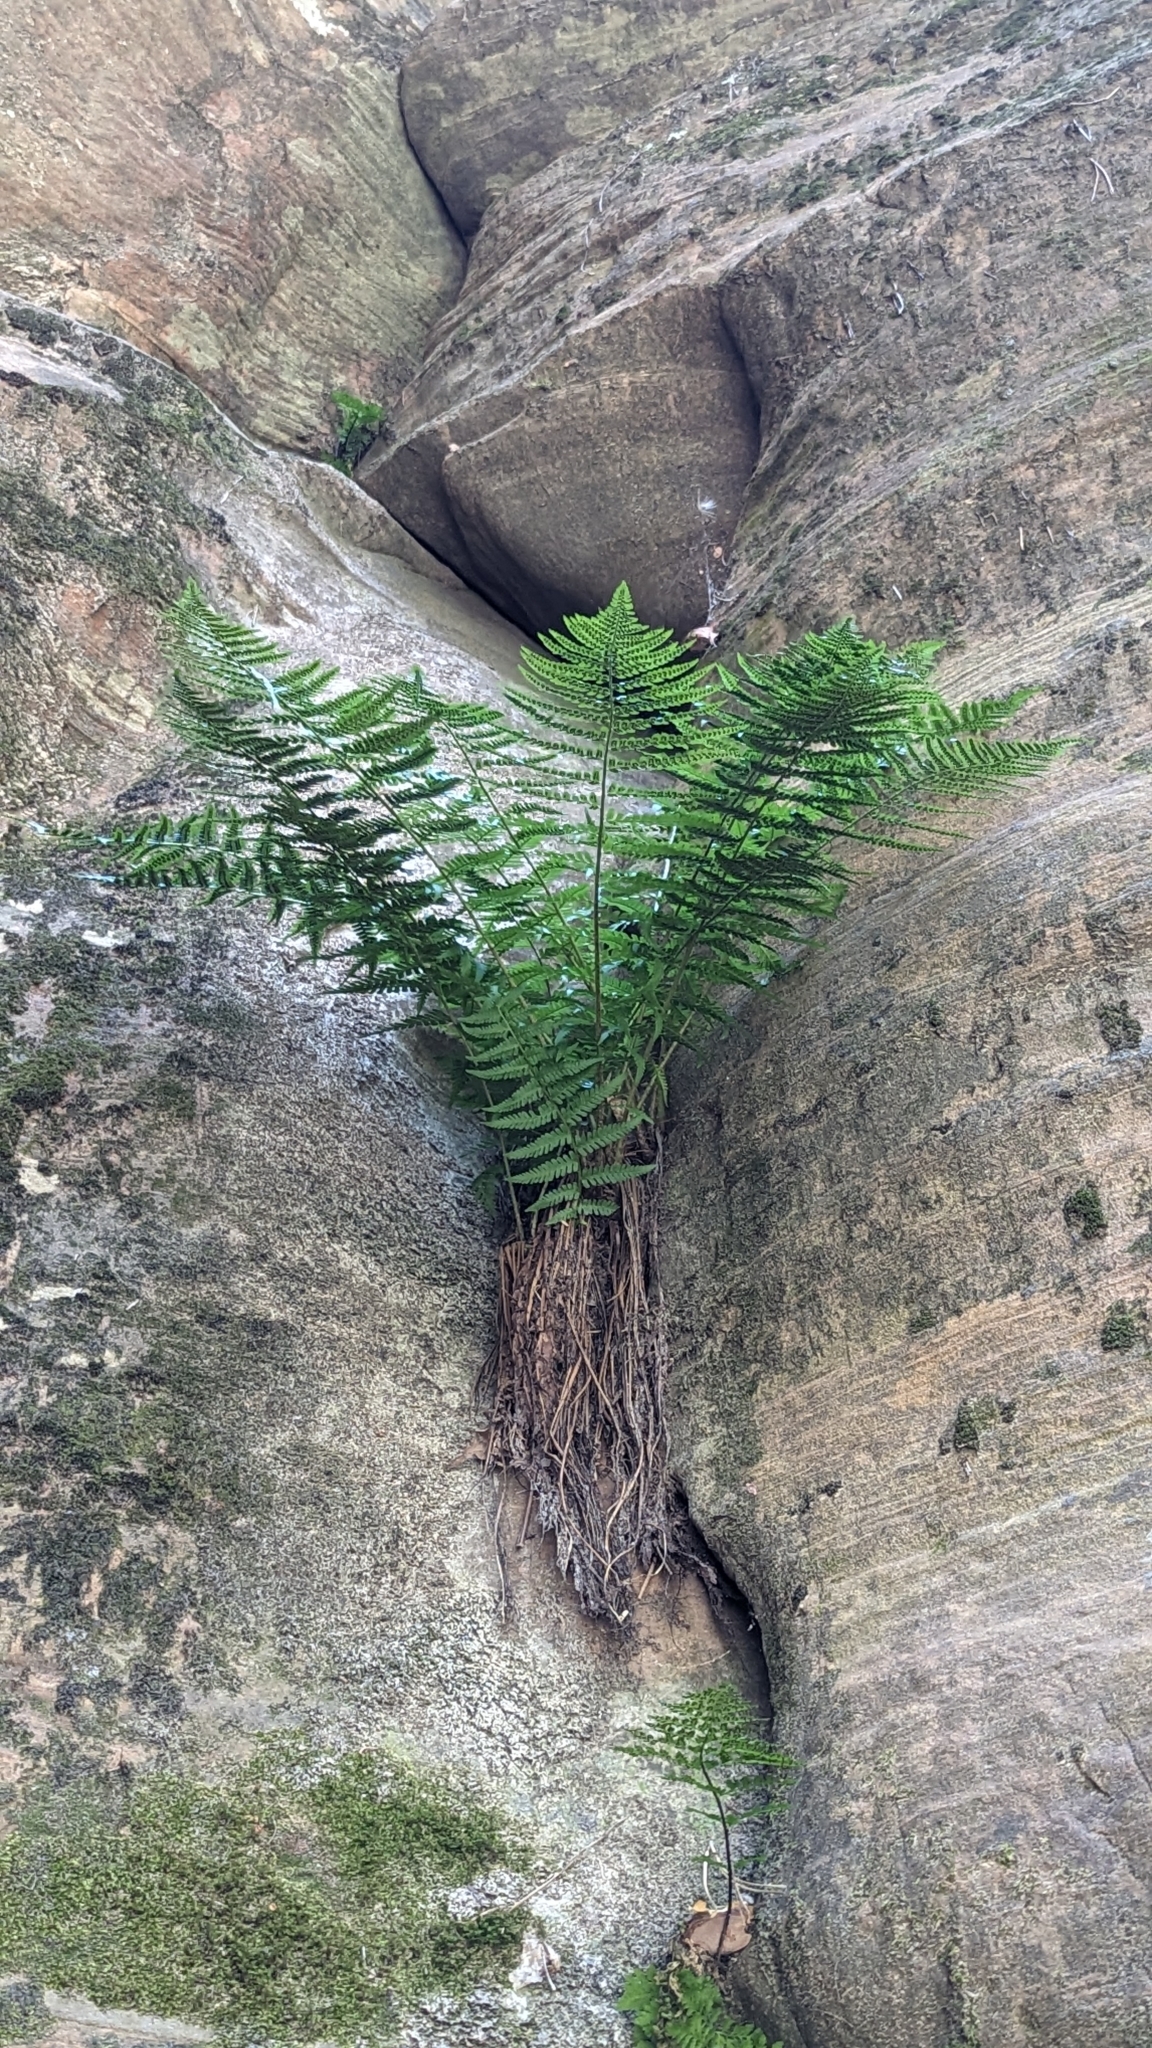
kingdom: Plantae
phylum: Tracheophyta
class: Polypodiopsida
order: Polypodiales
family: Dryopteridaceae
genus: Dryopteris
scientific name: Dryopteris filix-mas
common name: Male fern
